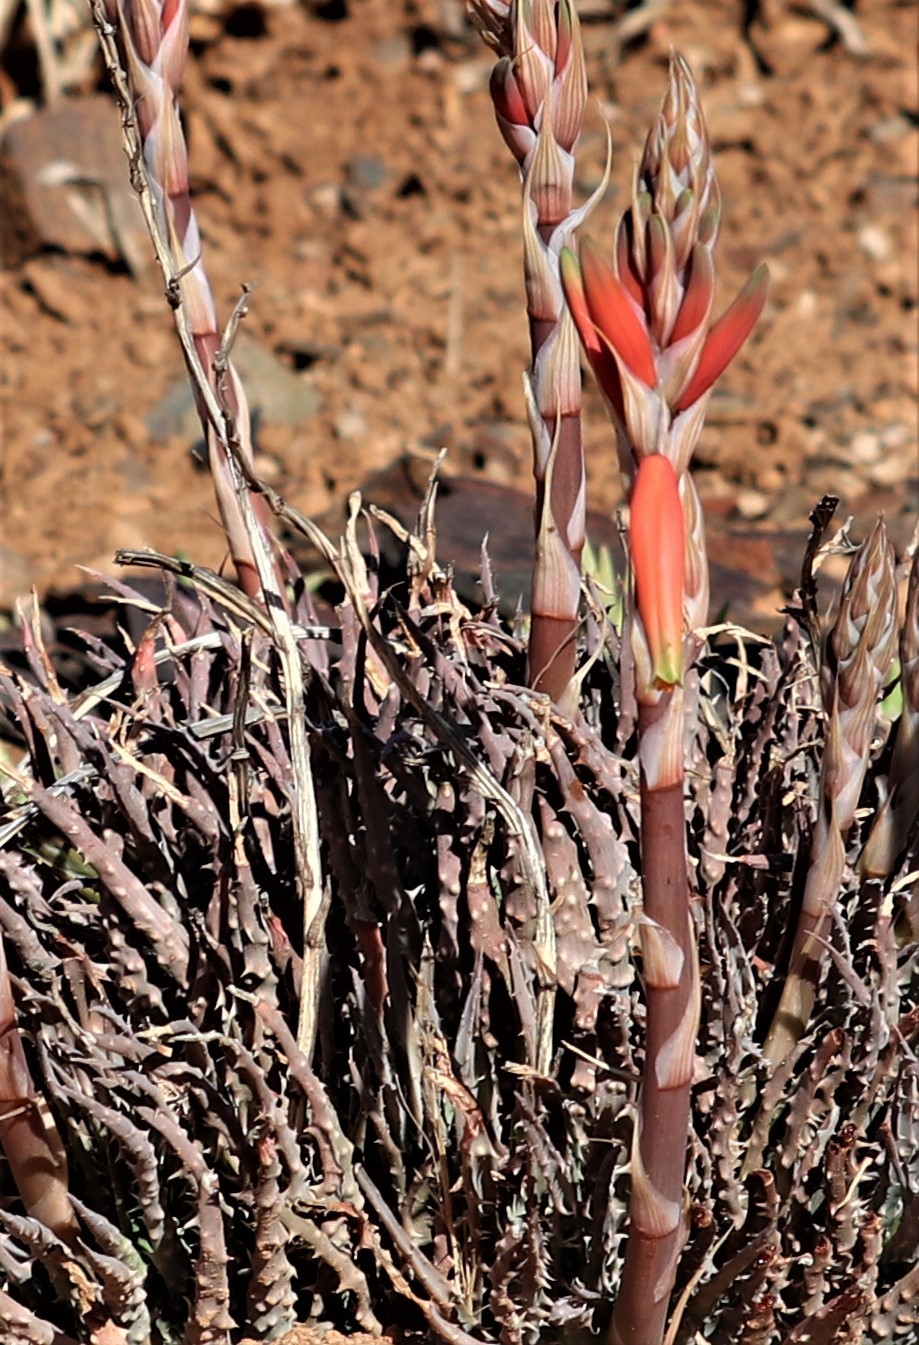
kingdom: Plantae
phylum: Tracheophyta
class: Liliopsida
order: Asparagales
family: Asphodelaceae
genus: Aloe
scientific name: Aloe humilis
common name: Dwarf hedgehog aloe
